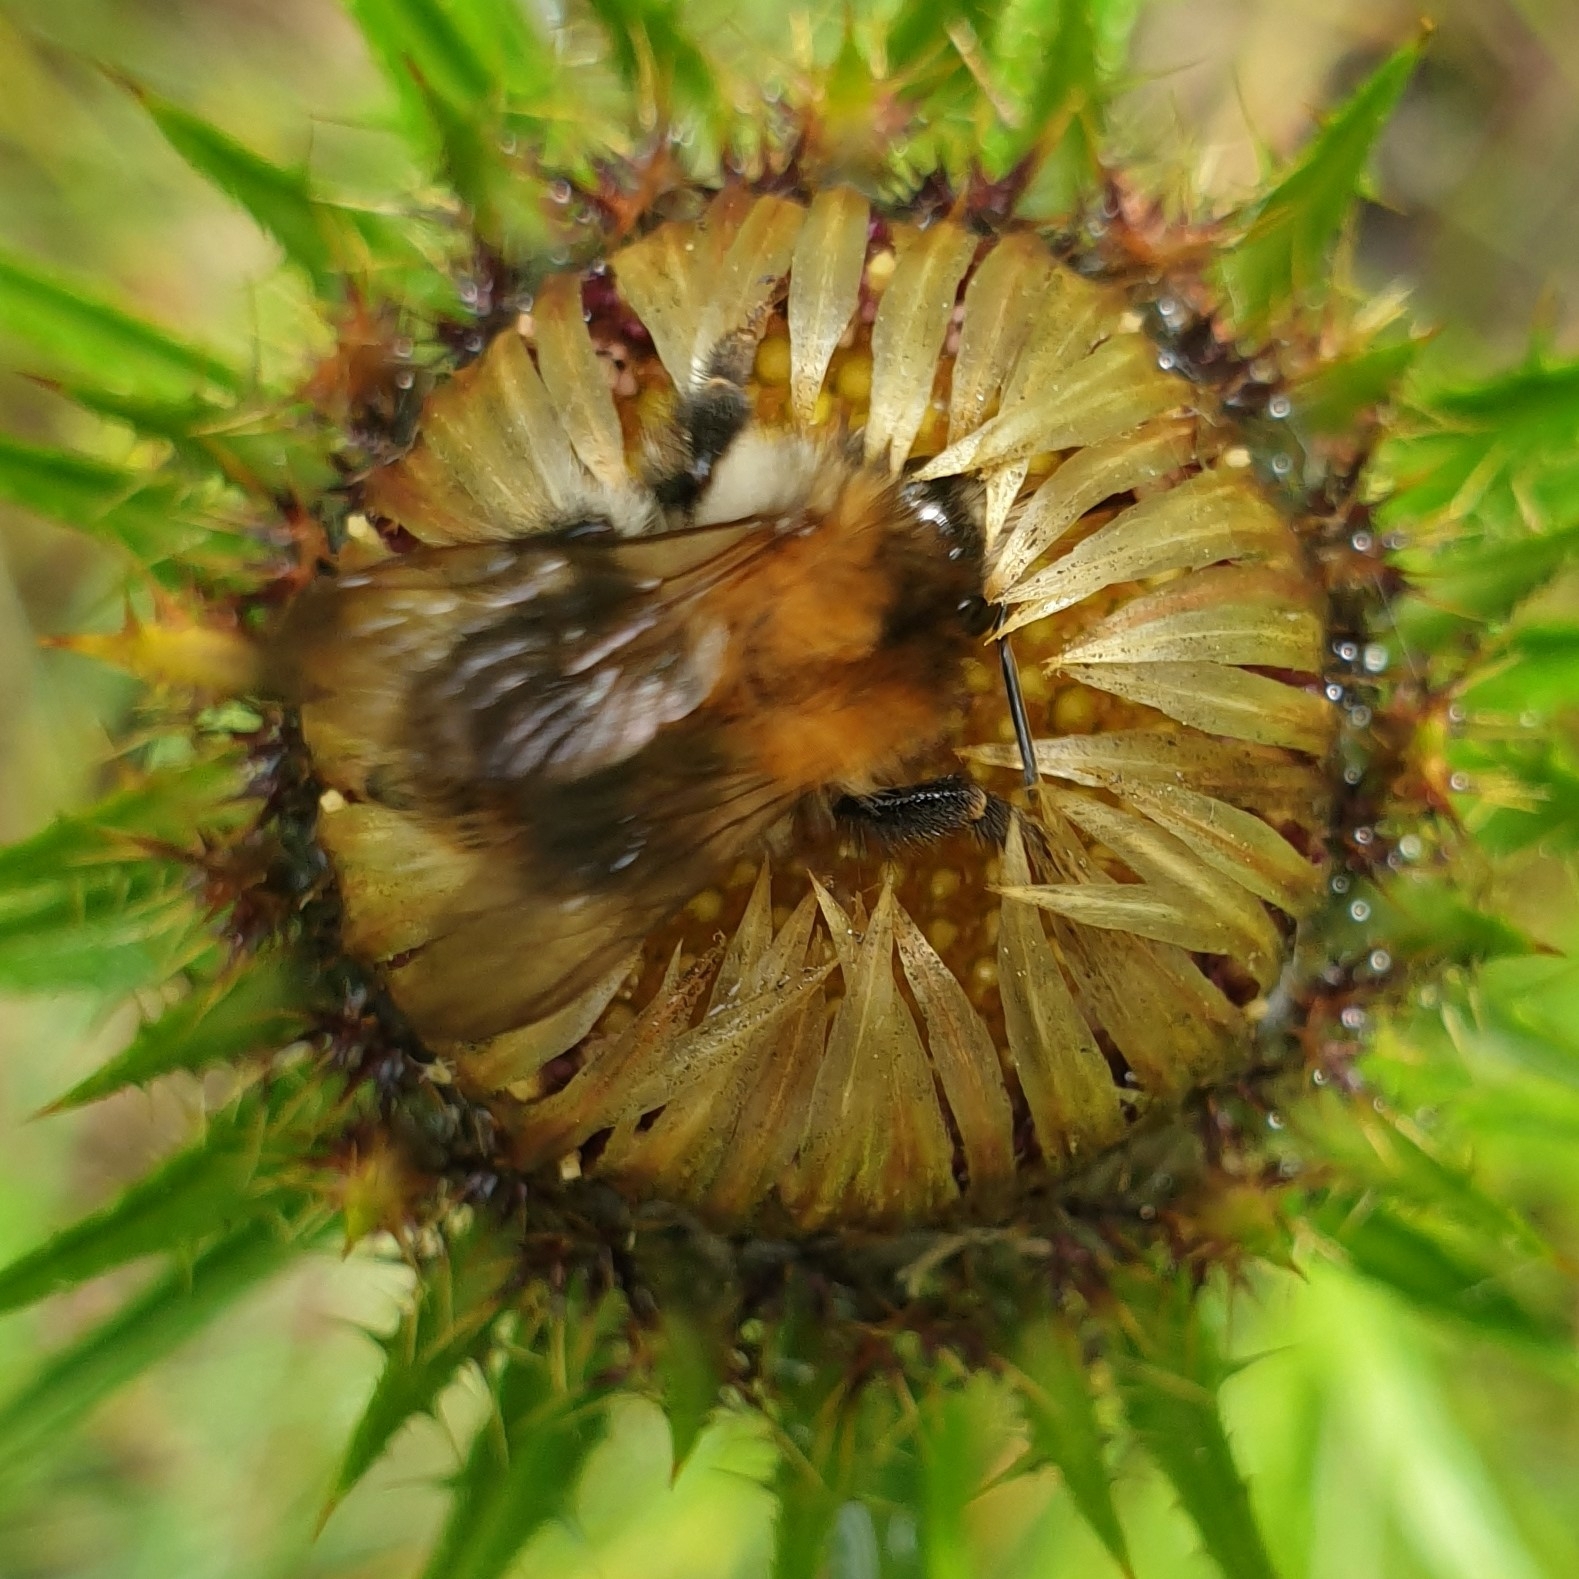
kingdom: Animalia
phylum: Arthropoda
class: Insecta
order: Hymenoptera
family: Apidae
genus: Bombus
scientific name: Bombus pascuorum
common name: Common carder bee
